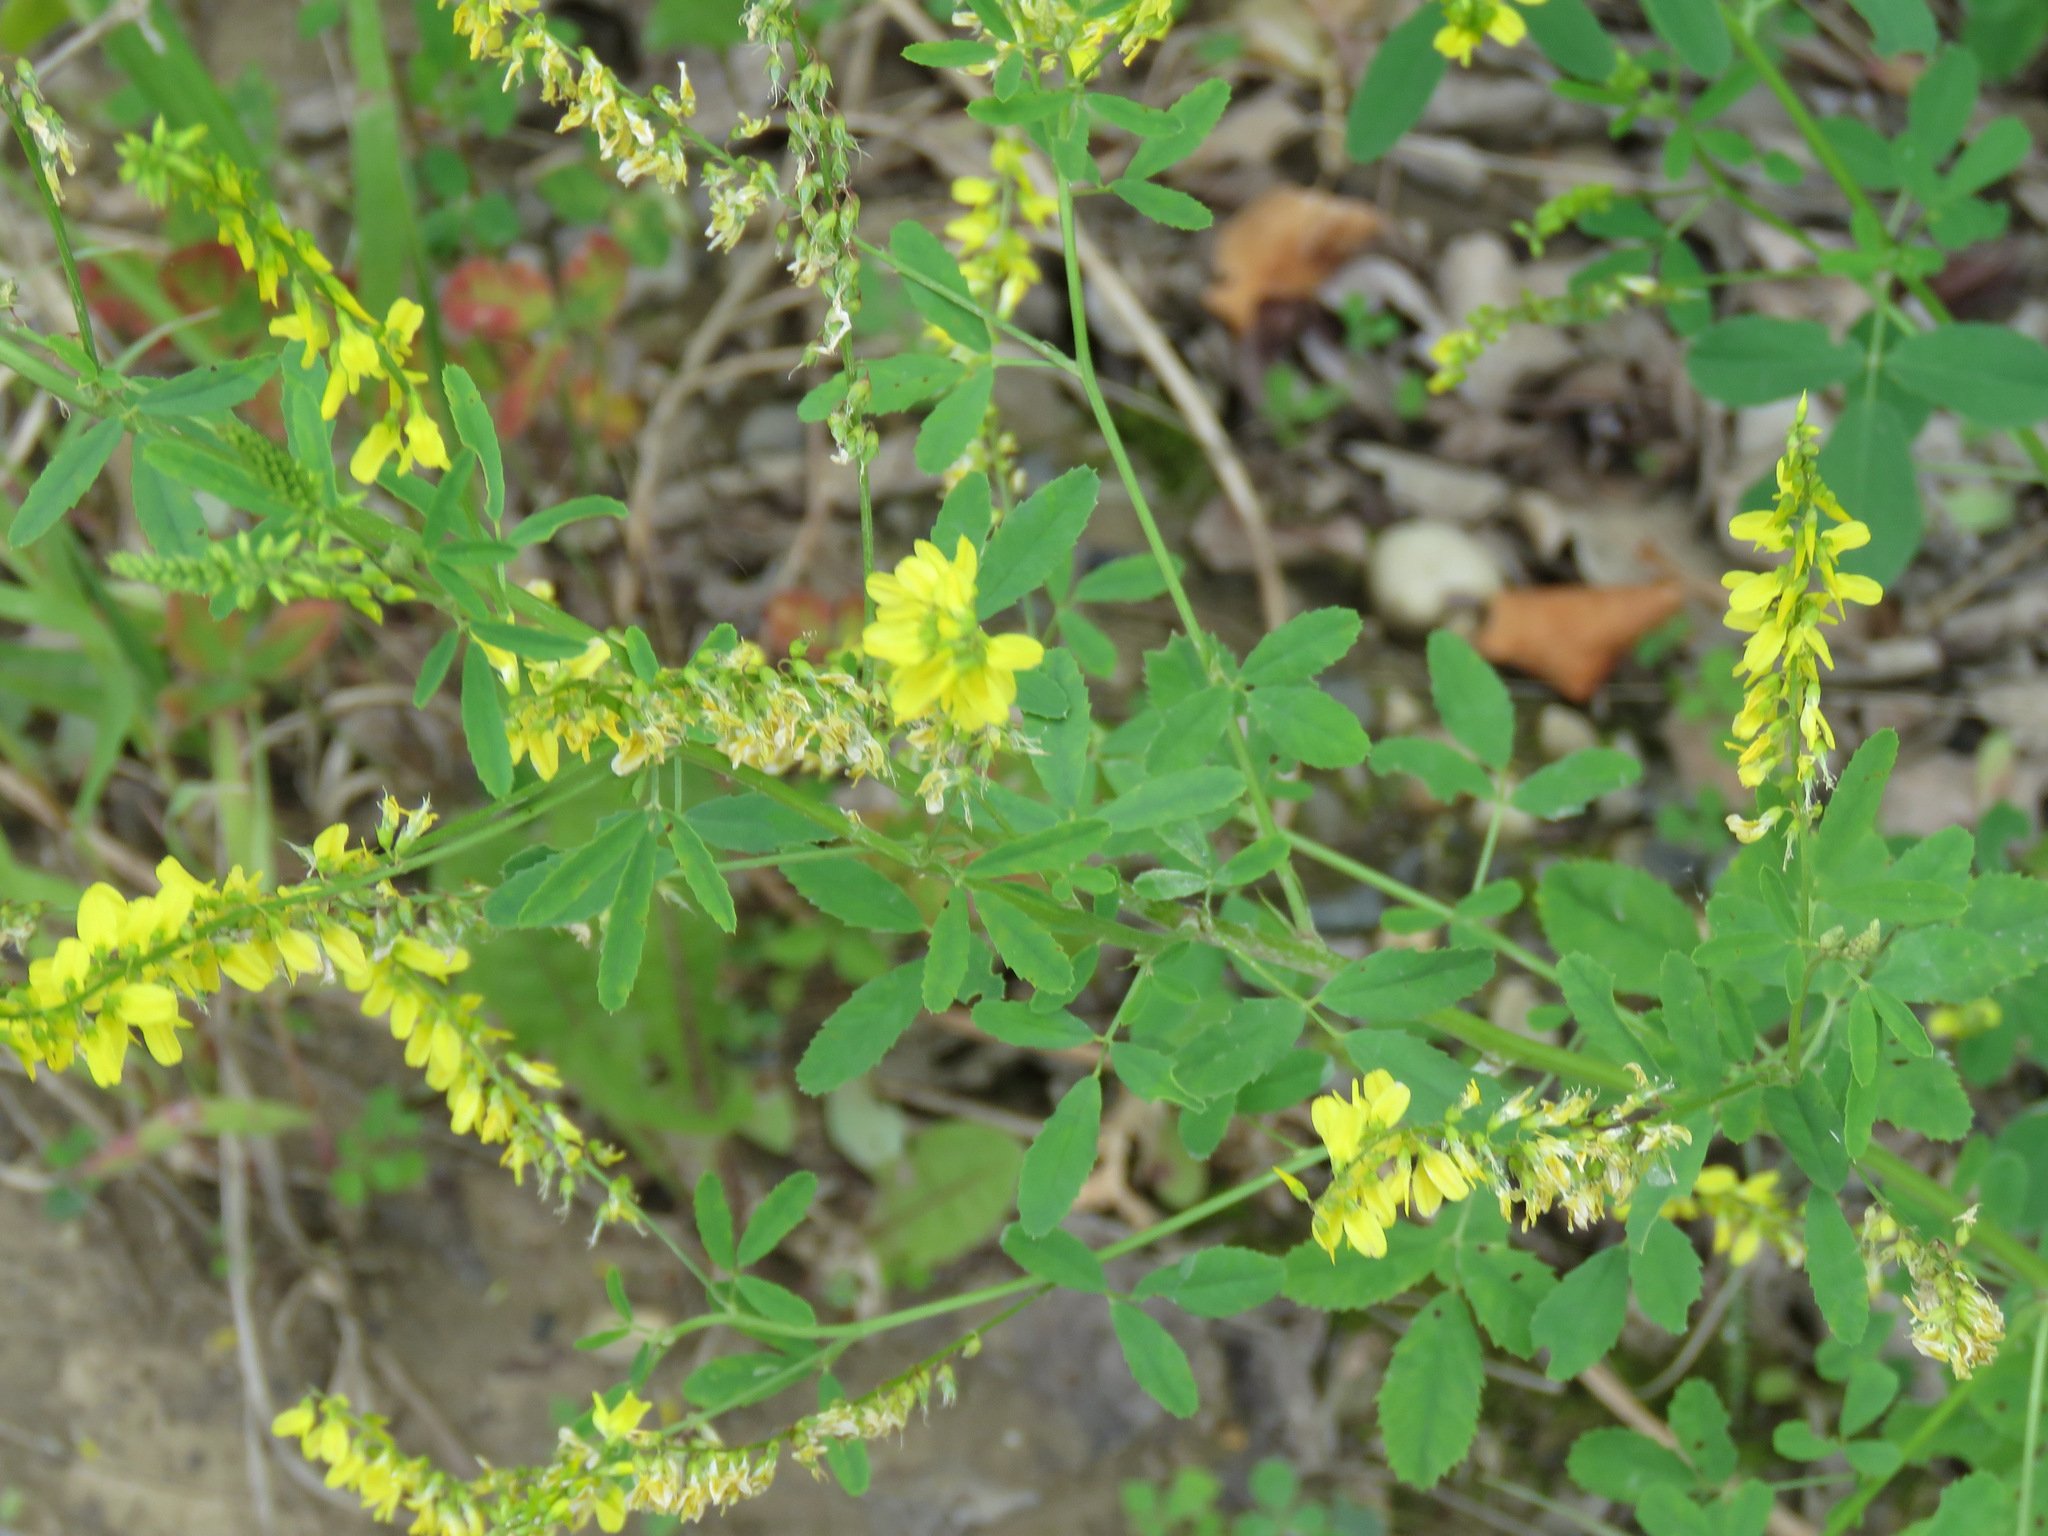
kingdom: Plantae
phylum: Tracheophyta
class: Magnoliopsida
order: Fabales
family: Fabaceae
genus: Melilotus
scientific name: Melilotus officinalis
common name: Sweetclover
